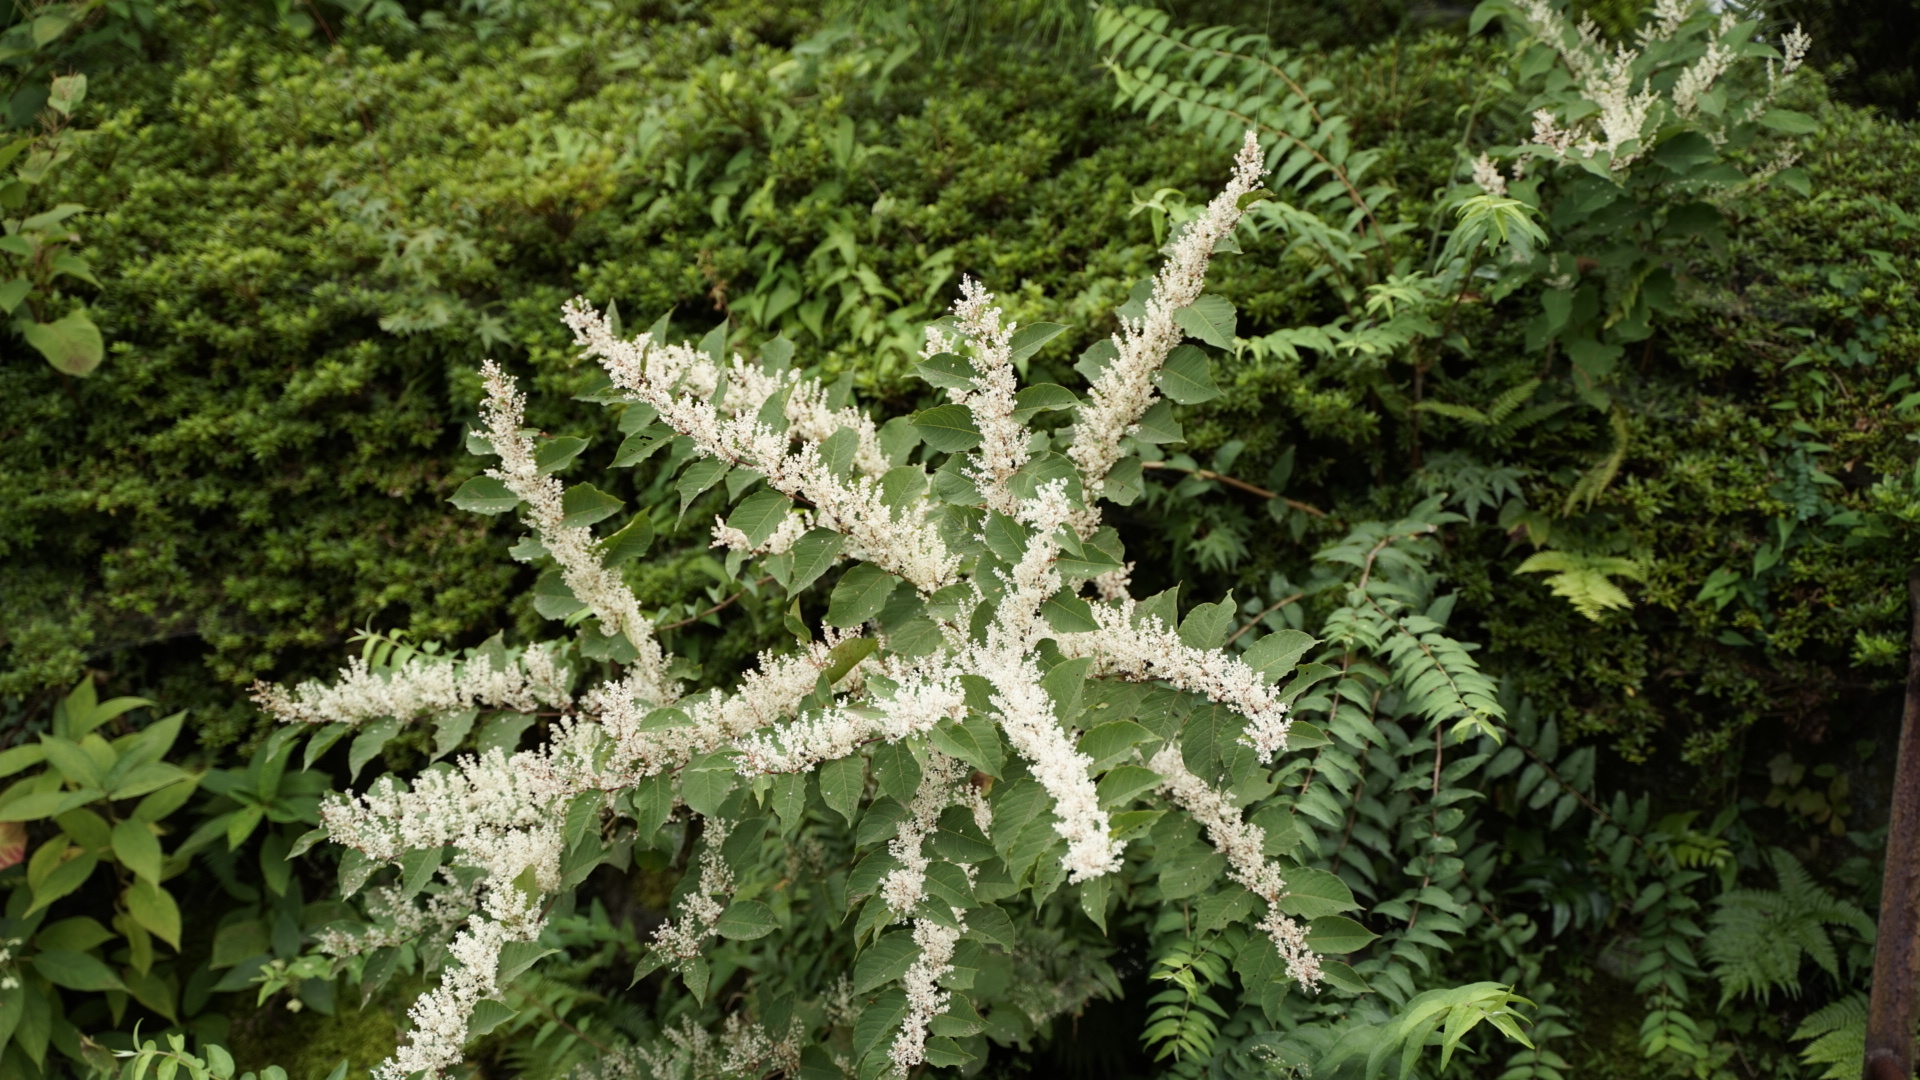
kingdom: Plantae
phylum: Tracheophyta
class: Magnoliopsida
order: Caryophyllales
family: Polygonaceae
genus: Reynoutria
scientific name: Reynoutria japonica
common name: Japanese knotweed
